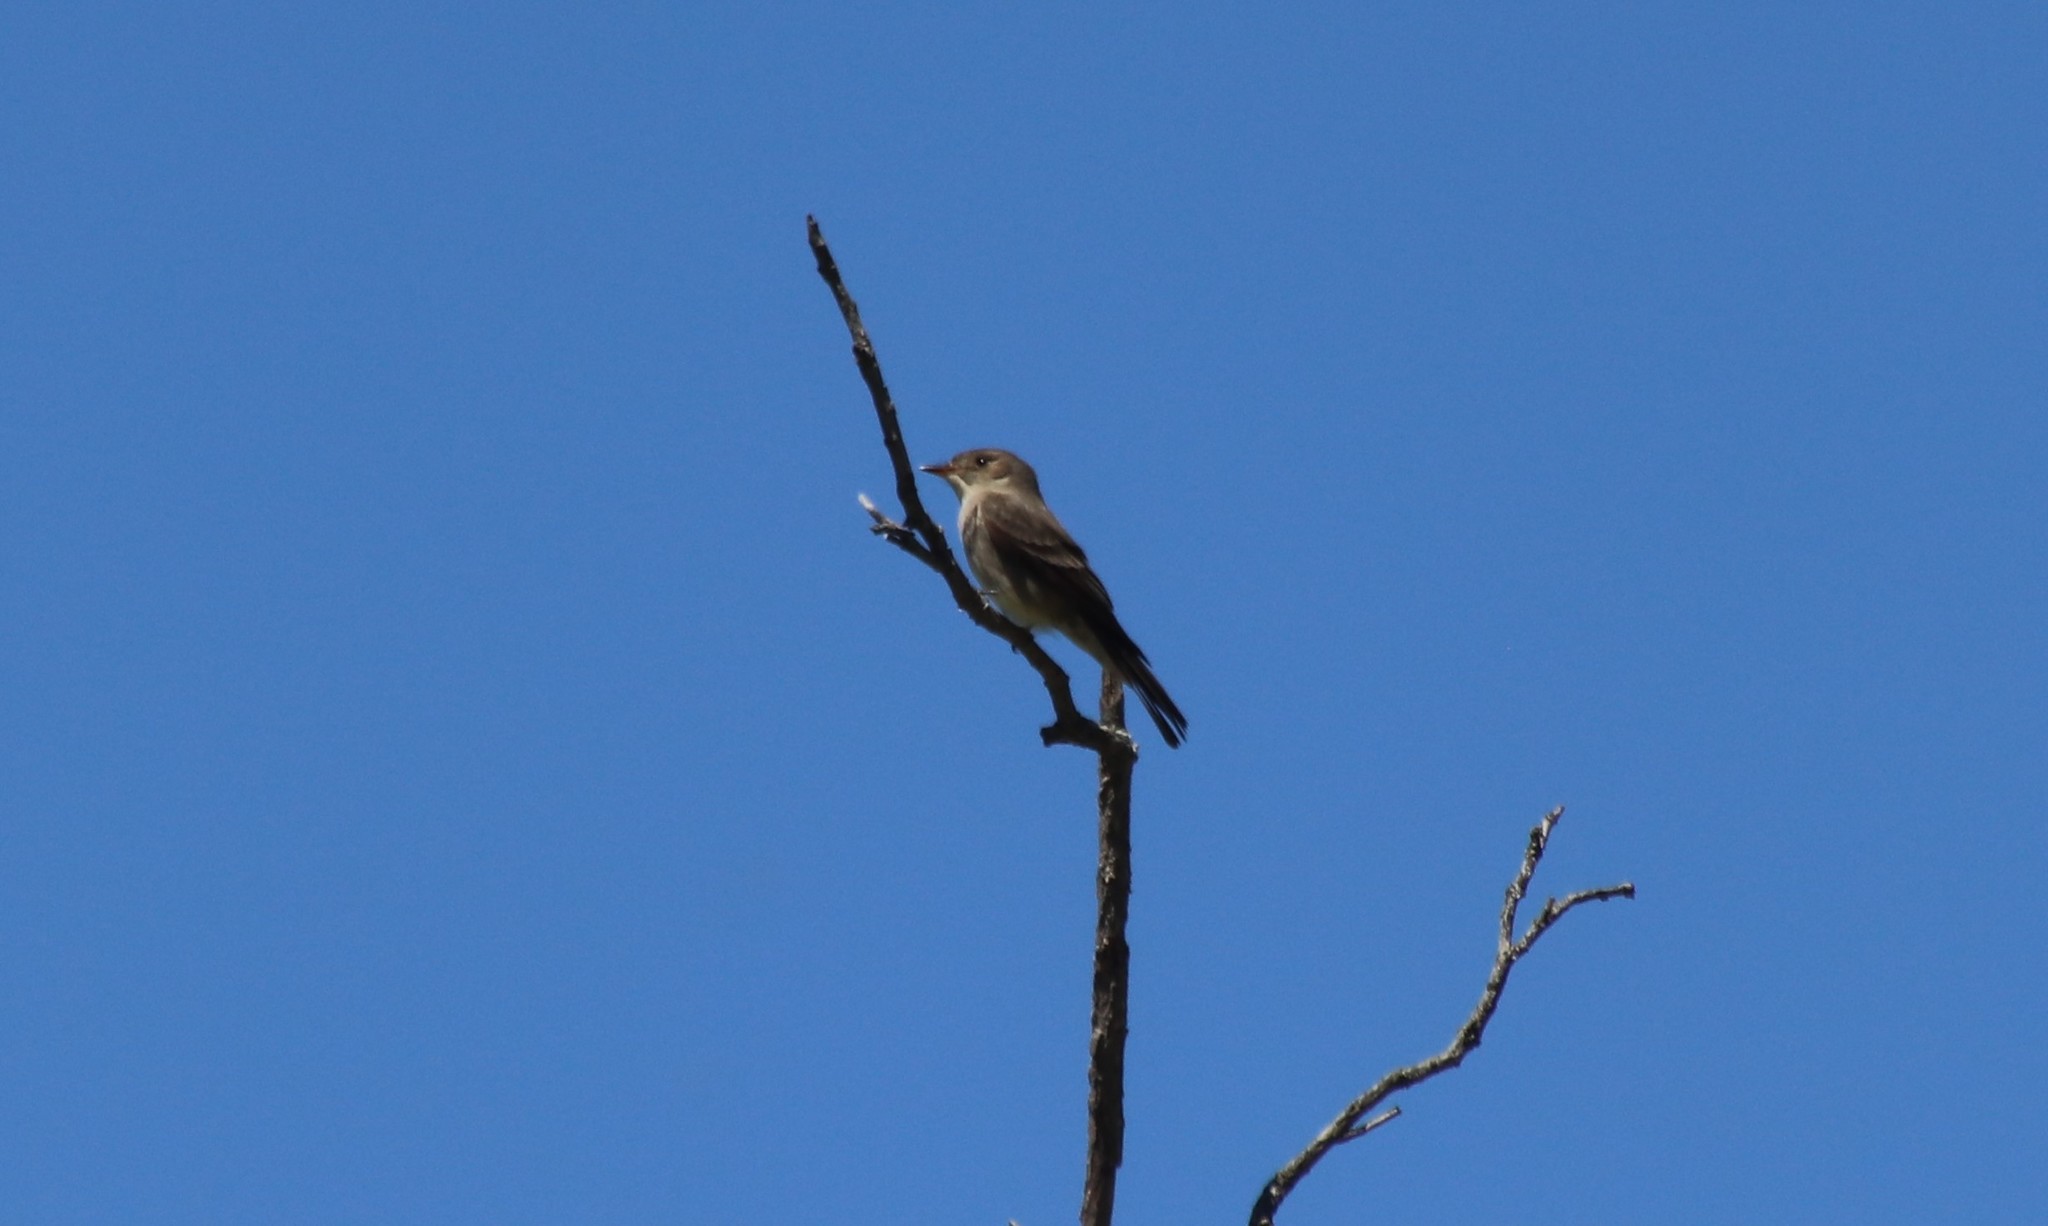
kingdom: Animalia
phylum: Chordata
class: Aves
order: Passeriformes
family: Tyrannidae
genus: Contopus
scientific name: Contopus sordidulus
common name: Western wood-pewee
